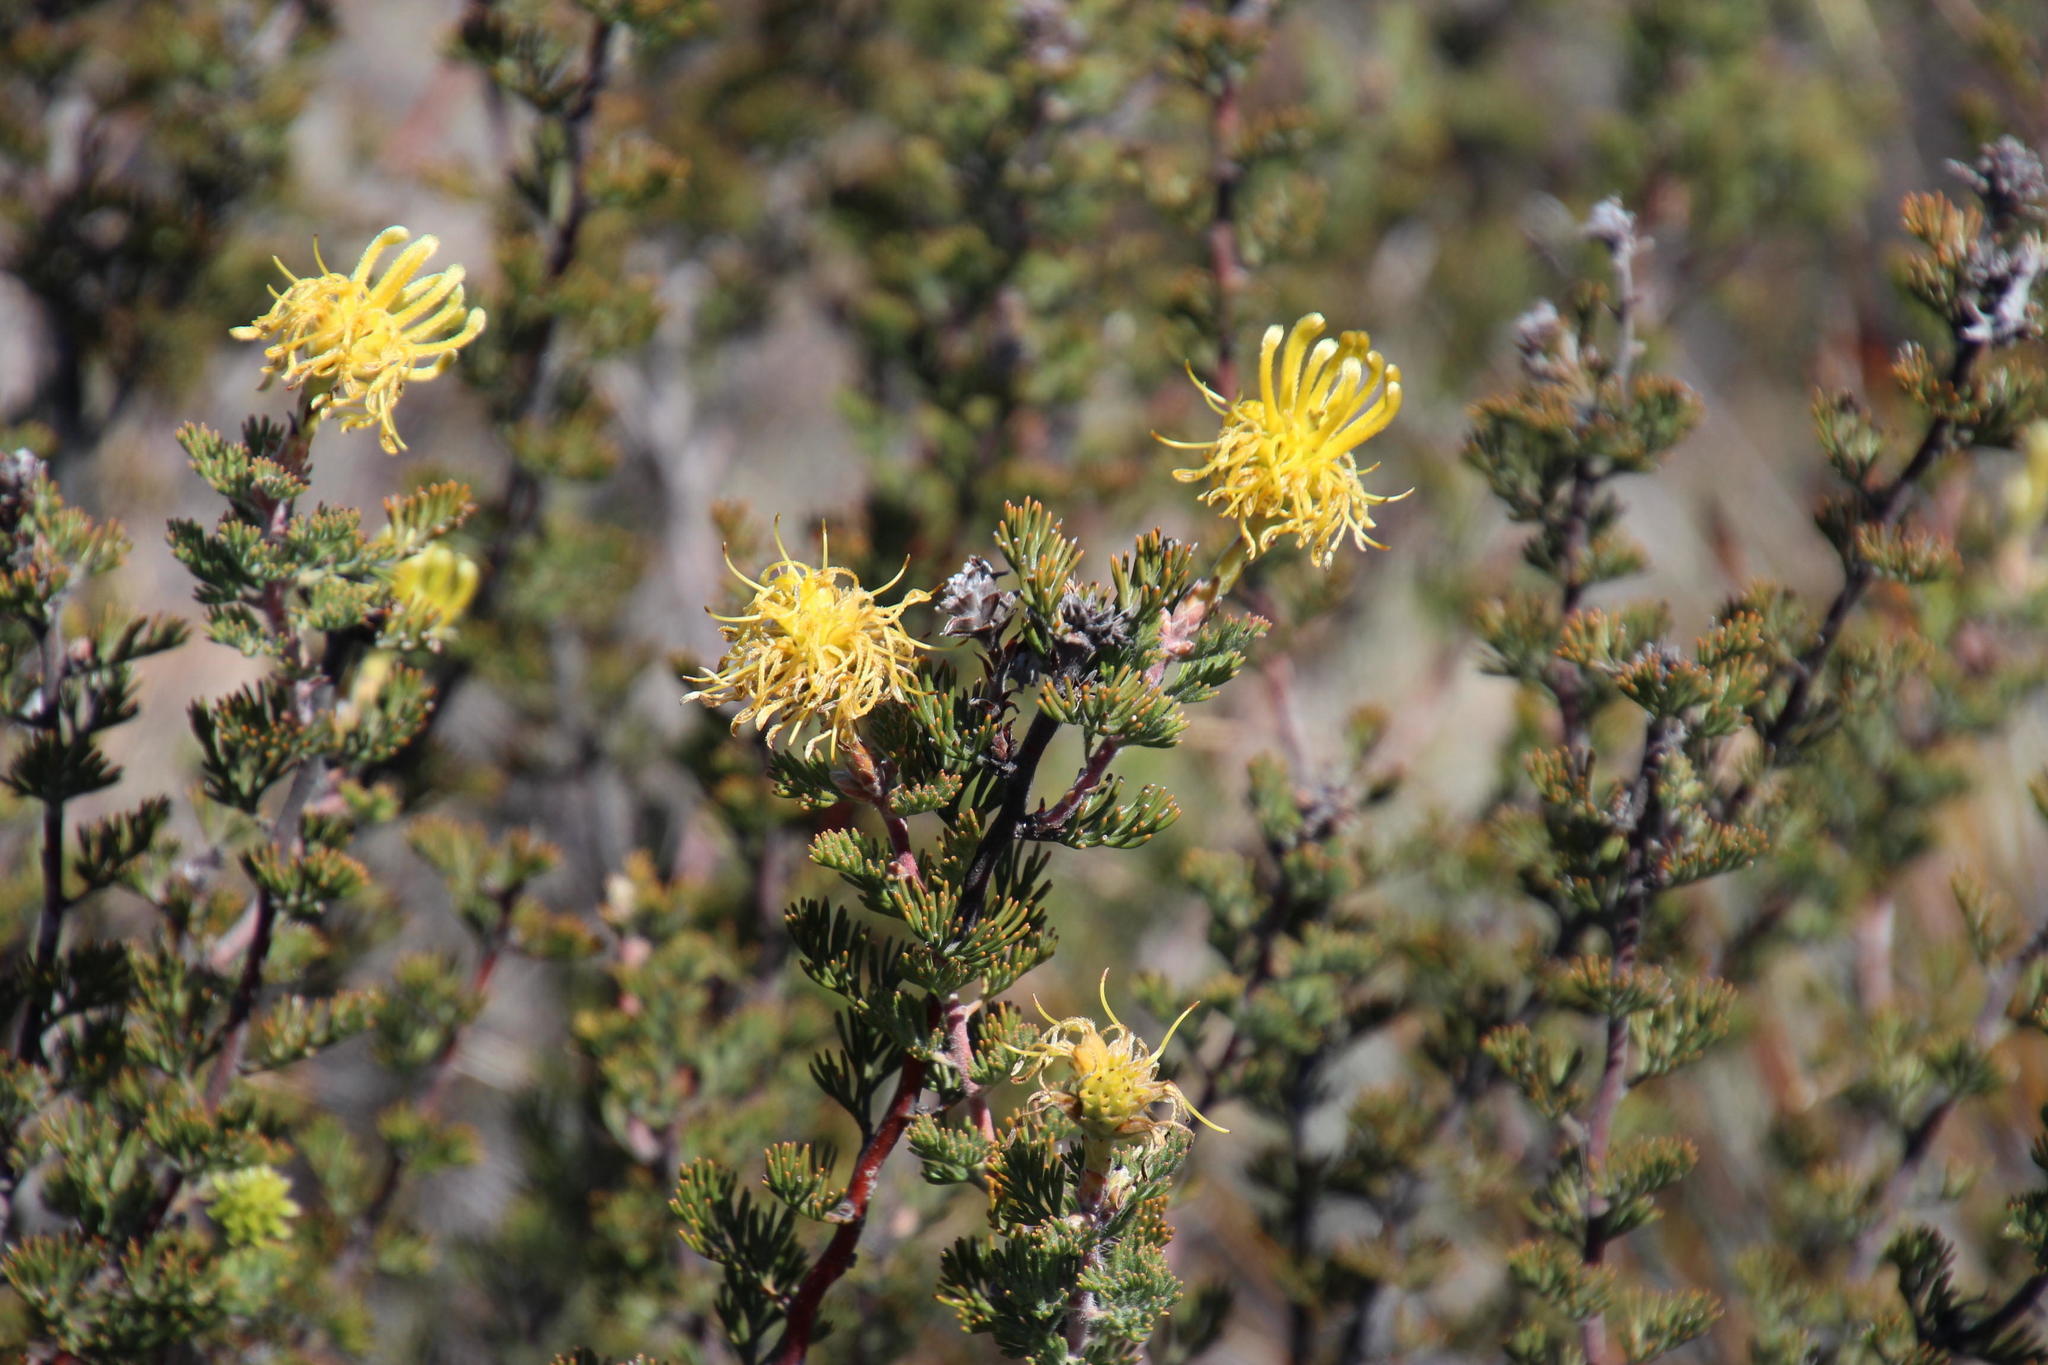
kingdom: Plantae
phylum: Tracheophyta
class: Magnoliopsida
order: Proteales
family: Proteaceae
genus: Serruria
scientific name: Serruria flava
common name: Spiderhead
